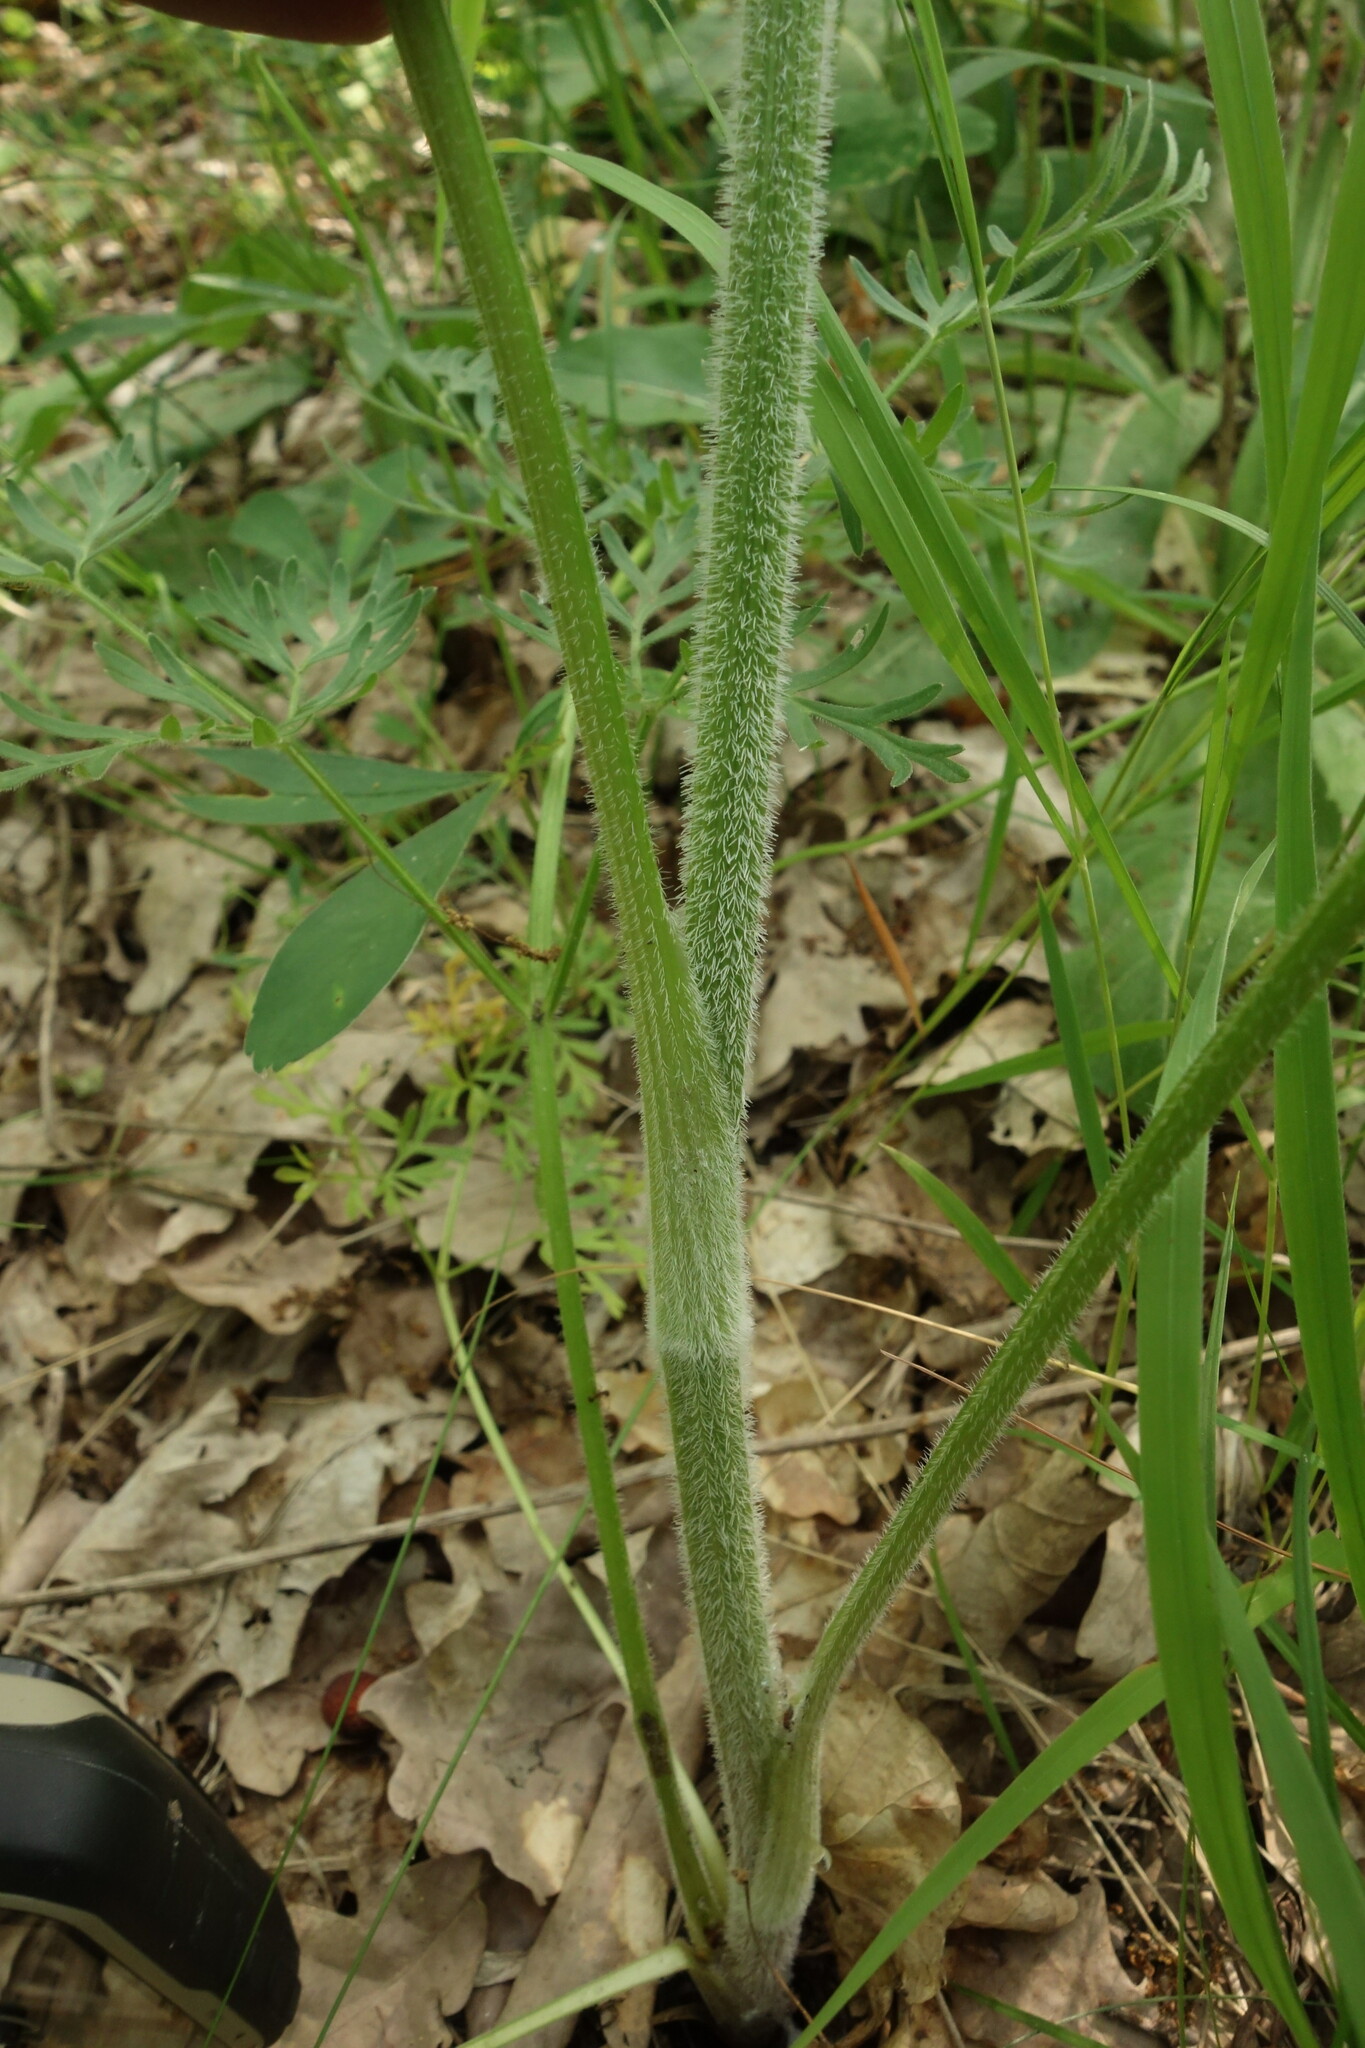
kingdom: Plantae
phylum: Tracheophyta
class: Magnoliopsida
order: Apiales
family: Apiaceae
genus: Silphiodaucus
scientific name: Silphiodaucus prutenicus
